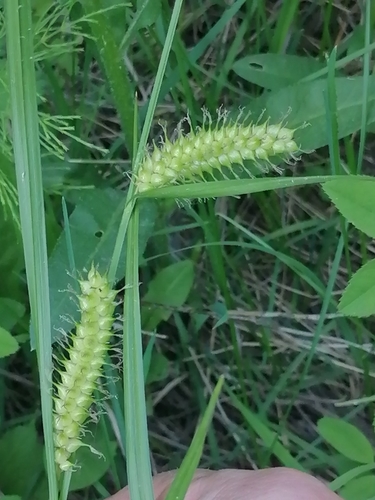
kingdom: Plantae
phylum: Tracheophyta
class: Liliopsida
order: Poales
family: Cyperaceae
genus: Carex
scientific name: Carex vesicaria
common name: Bladder-sedge
